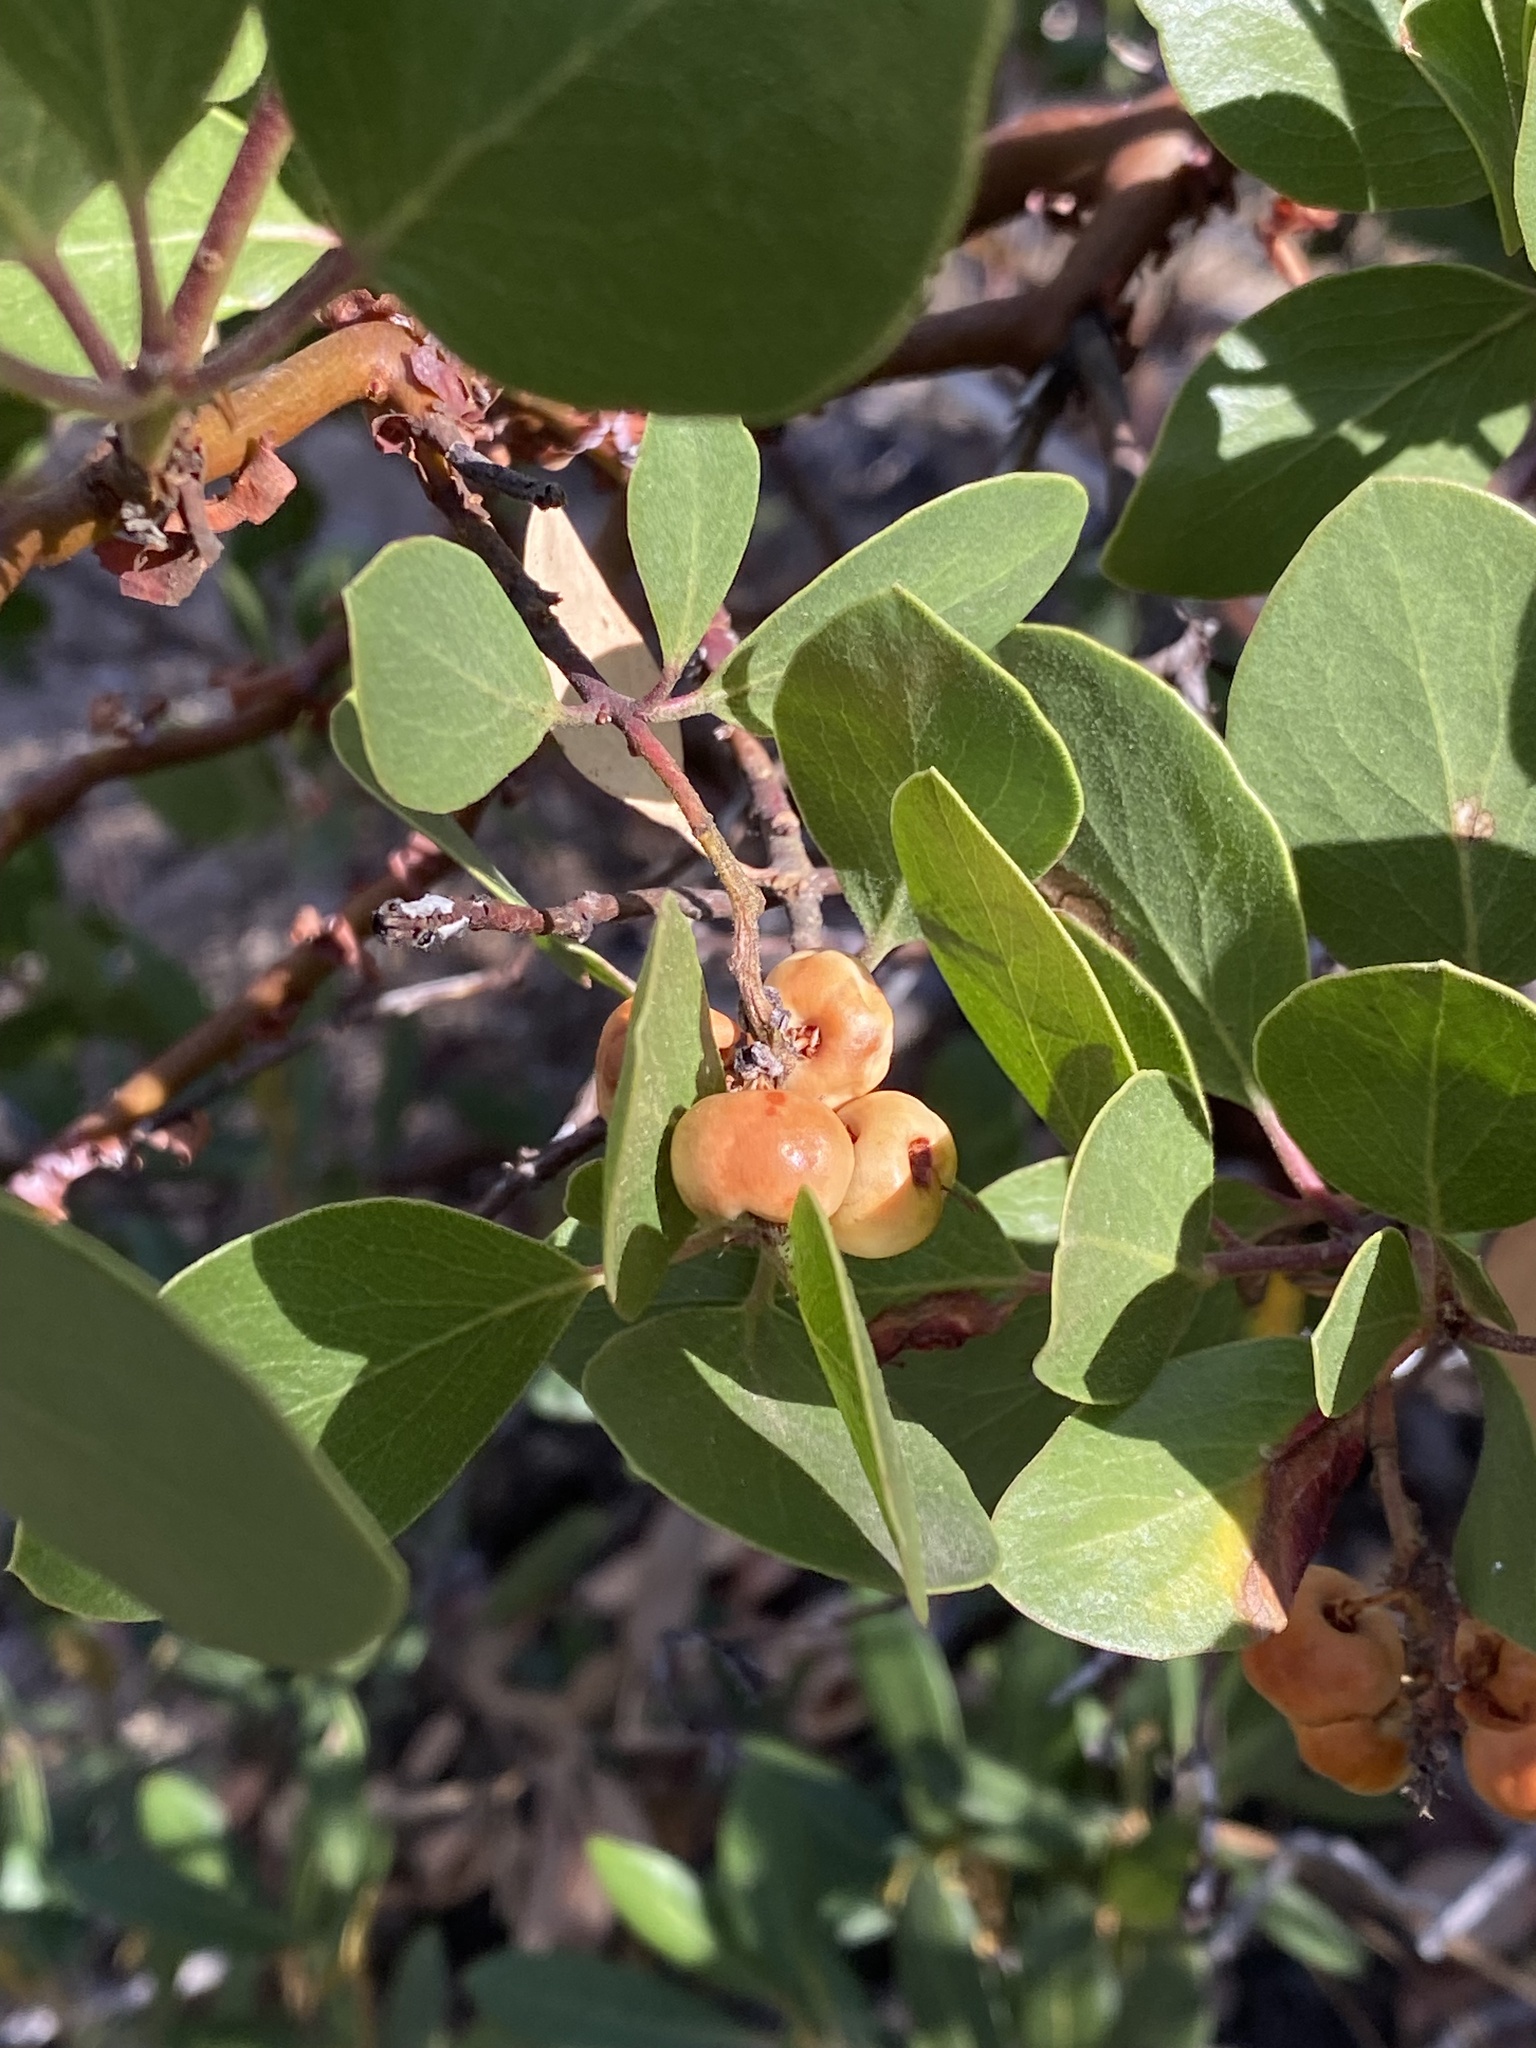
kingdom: Plantae
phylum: Tracheophyta
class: Magnoliopsida
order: Ericales
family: Ericaceae
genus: Arctostaphylos
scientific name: Arctostaphylos patula
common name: Green-leaf manzanita
